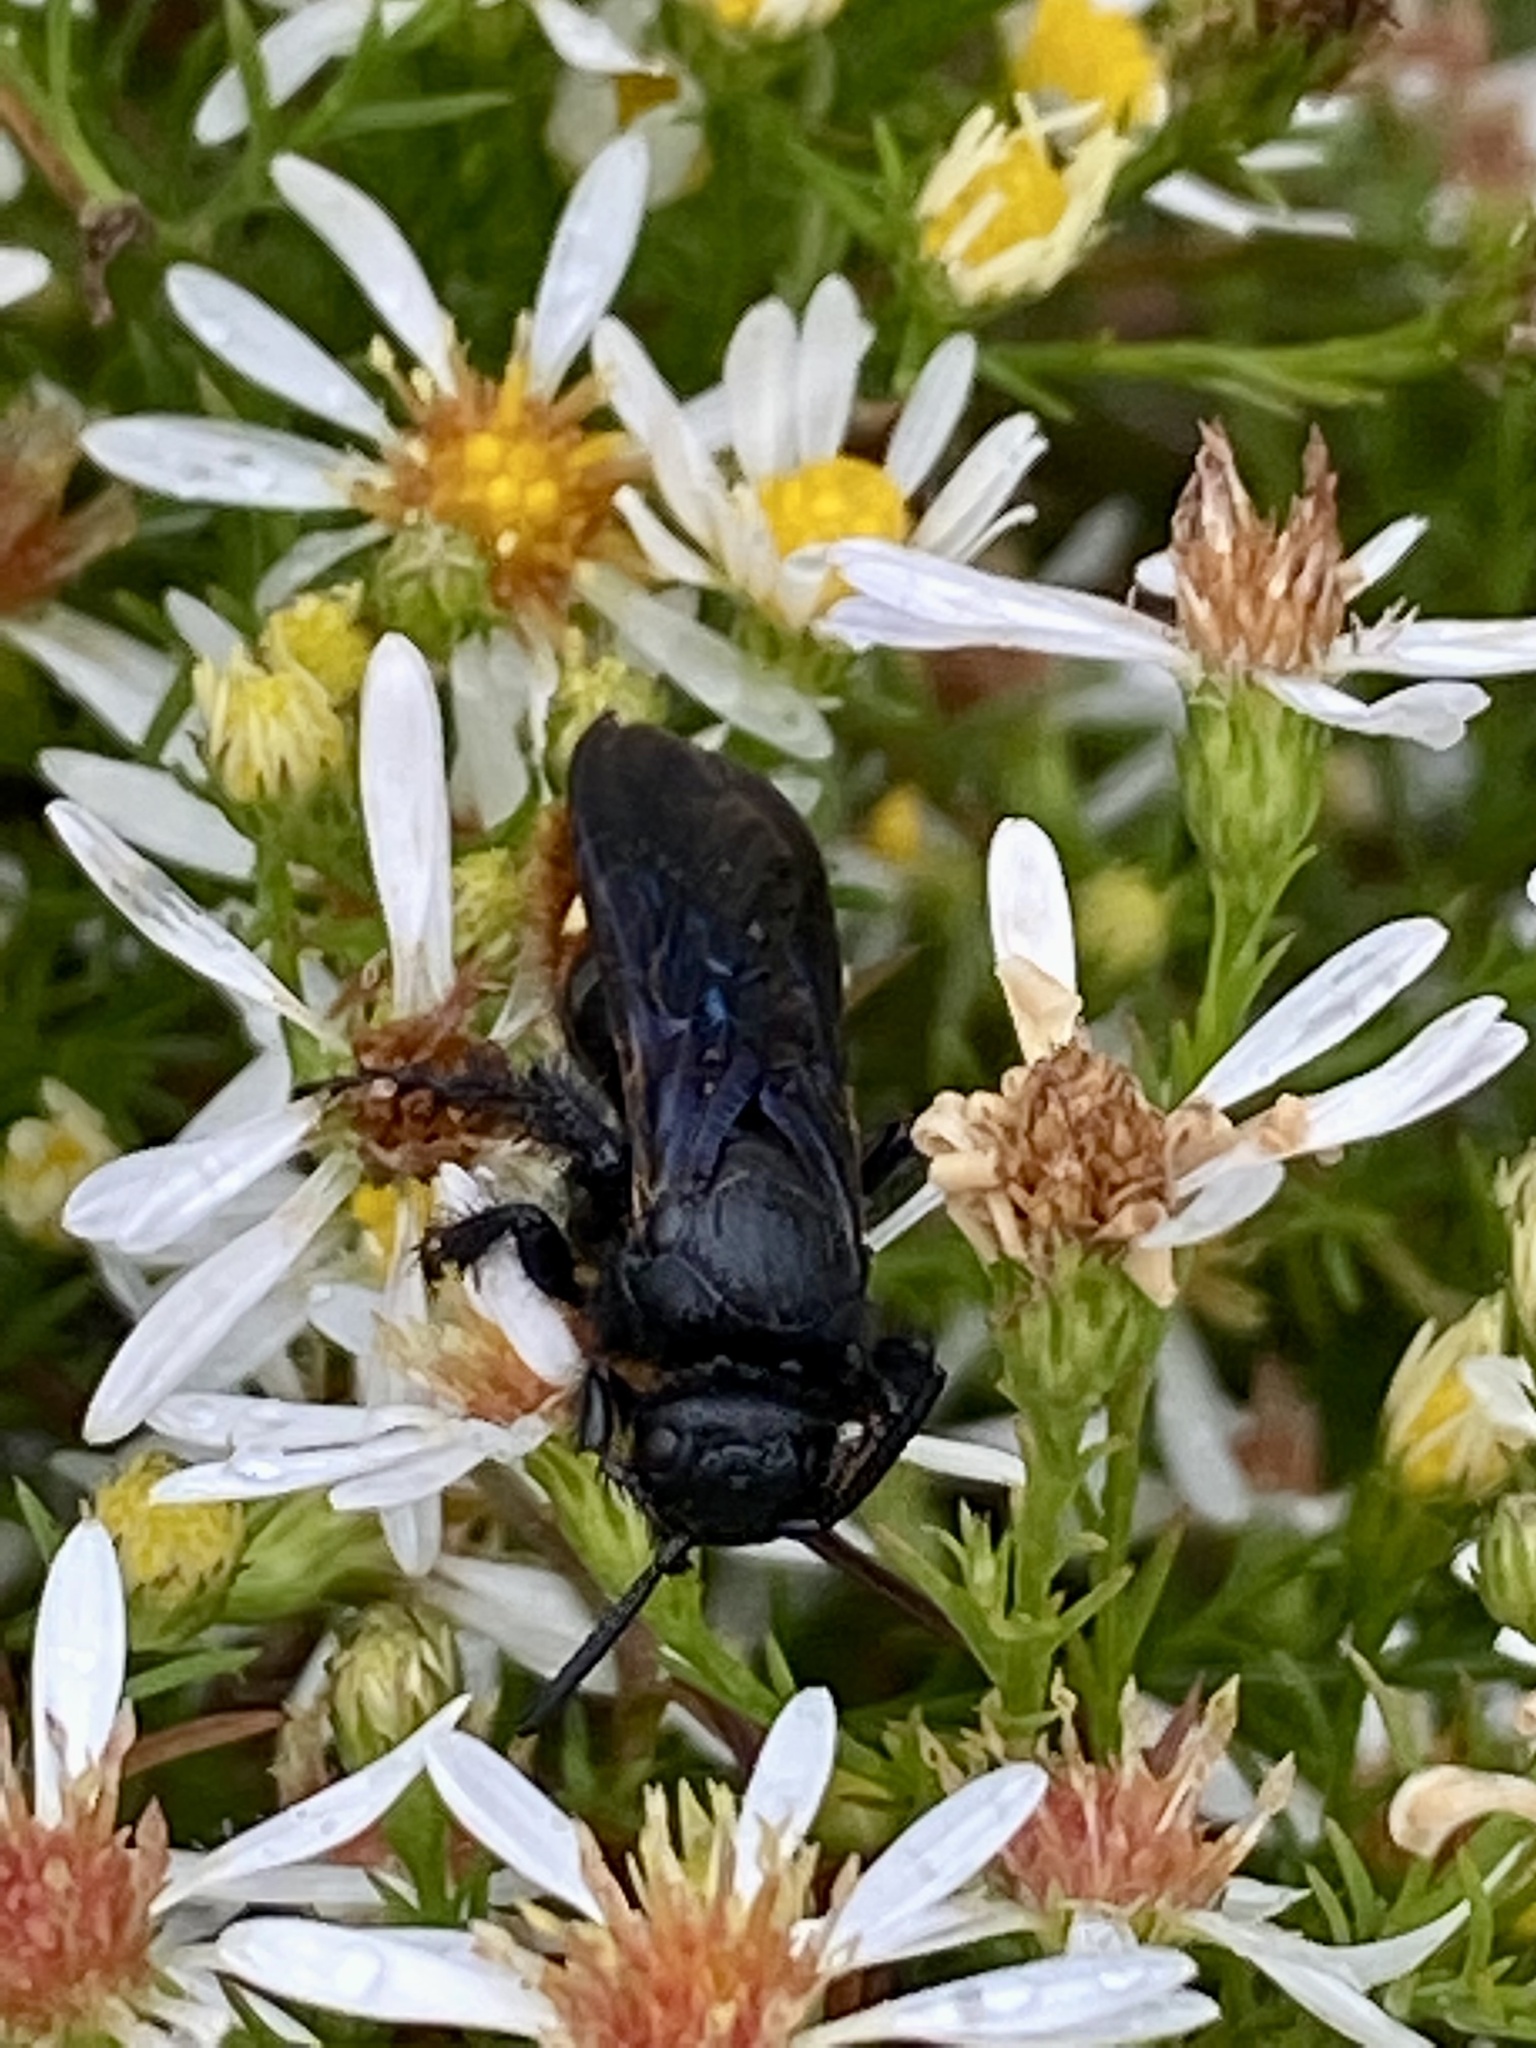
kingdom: Animalia
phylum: Arthropoda
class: Insecta
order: Hymenoptera
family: Scoliidae
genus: Scolia
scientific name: Scolia dubia
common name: Blue-winged scoliid wasp
